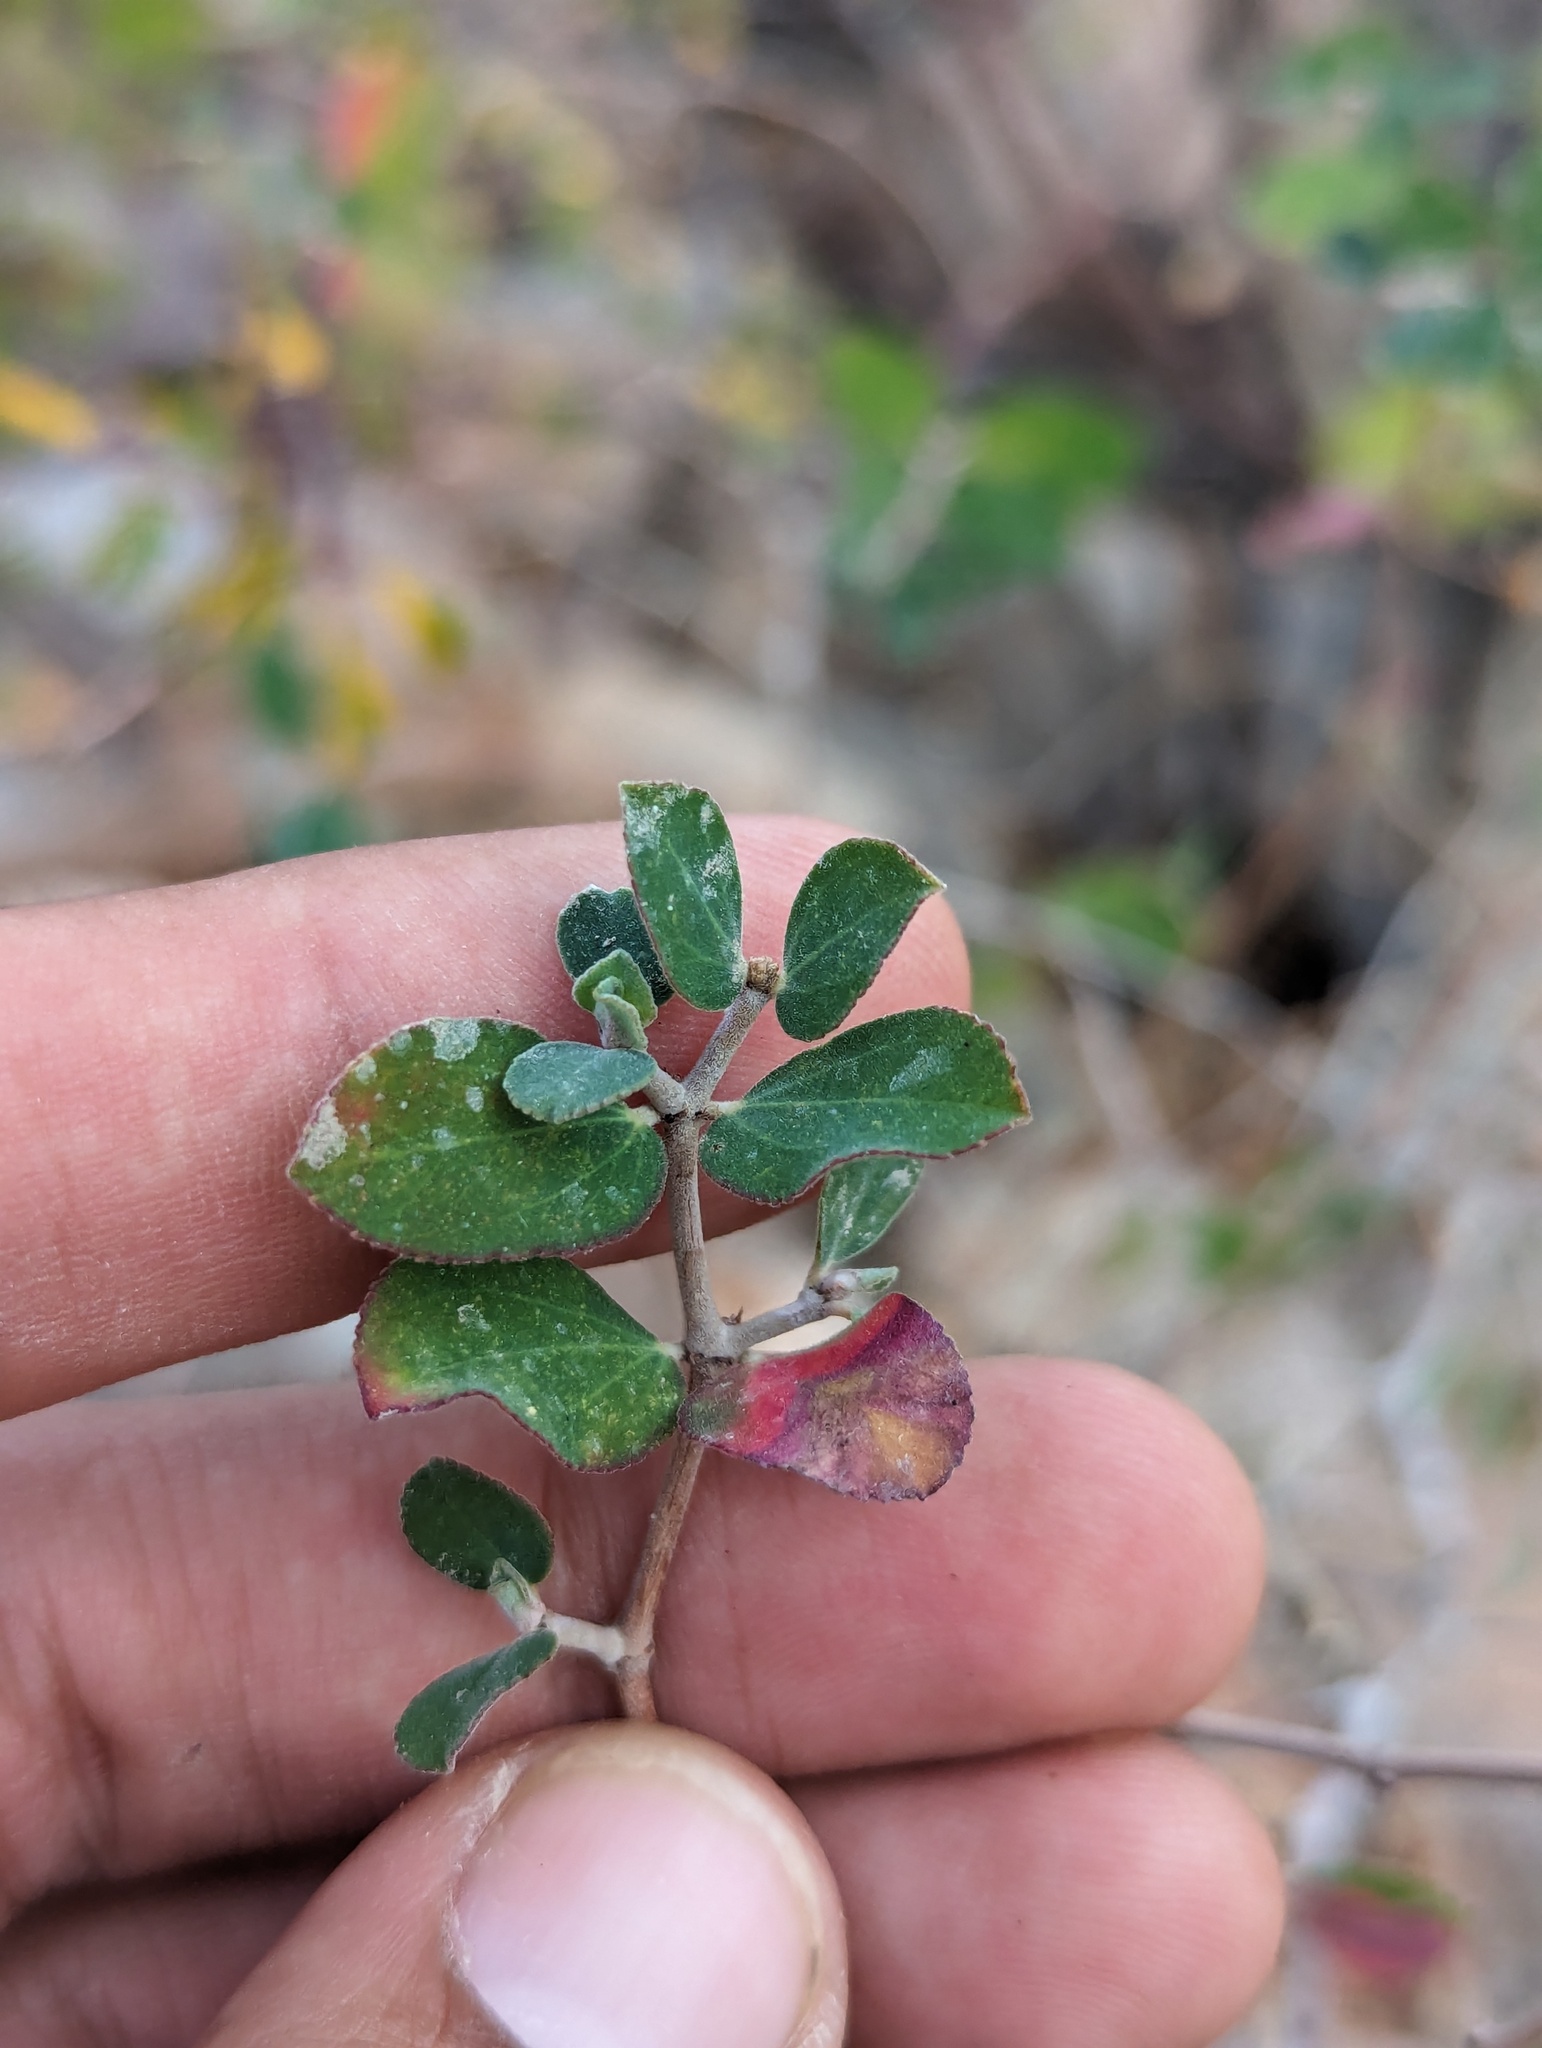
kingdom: Plantae
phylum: Tracheophyta
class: Magnoliopsida
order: Malpighiales
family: Euphorbiaceae
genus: Euphorbia
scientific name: Euphorbia tomentulosa
